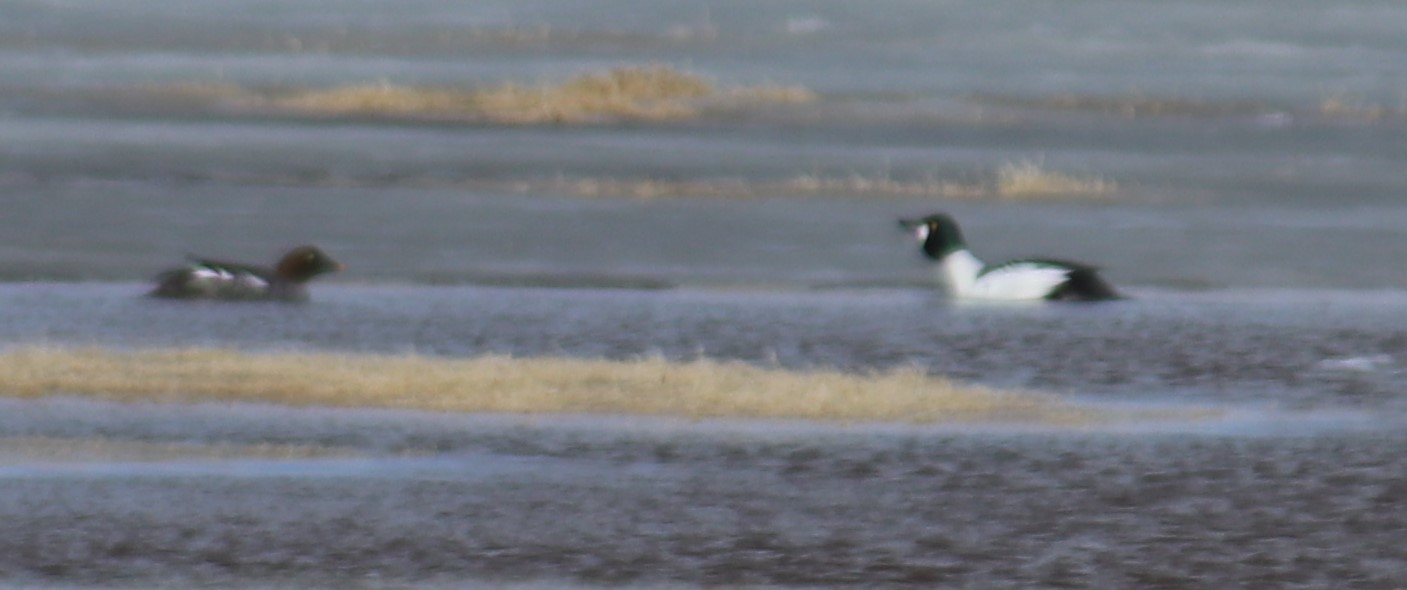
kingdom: Animalia
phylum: Chordata
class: Aves
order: Anseriformes
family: Anatidae
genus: Bucephala
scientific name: Bucephala clangula
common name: Common goldeneye
